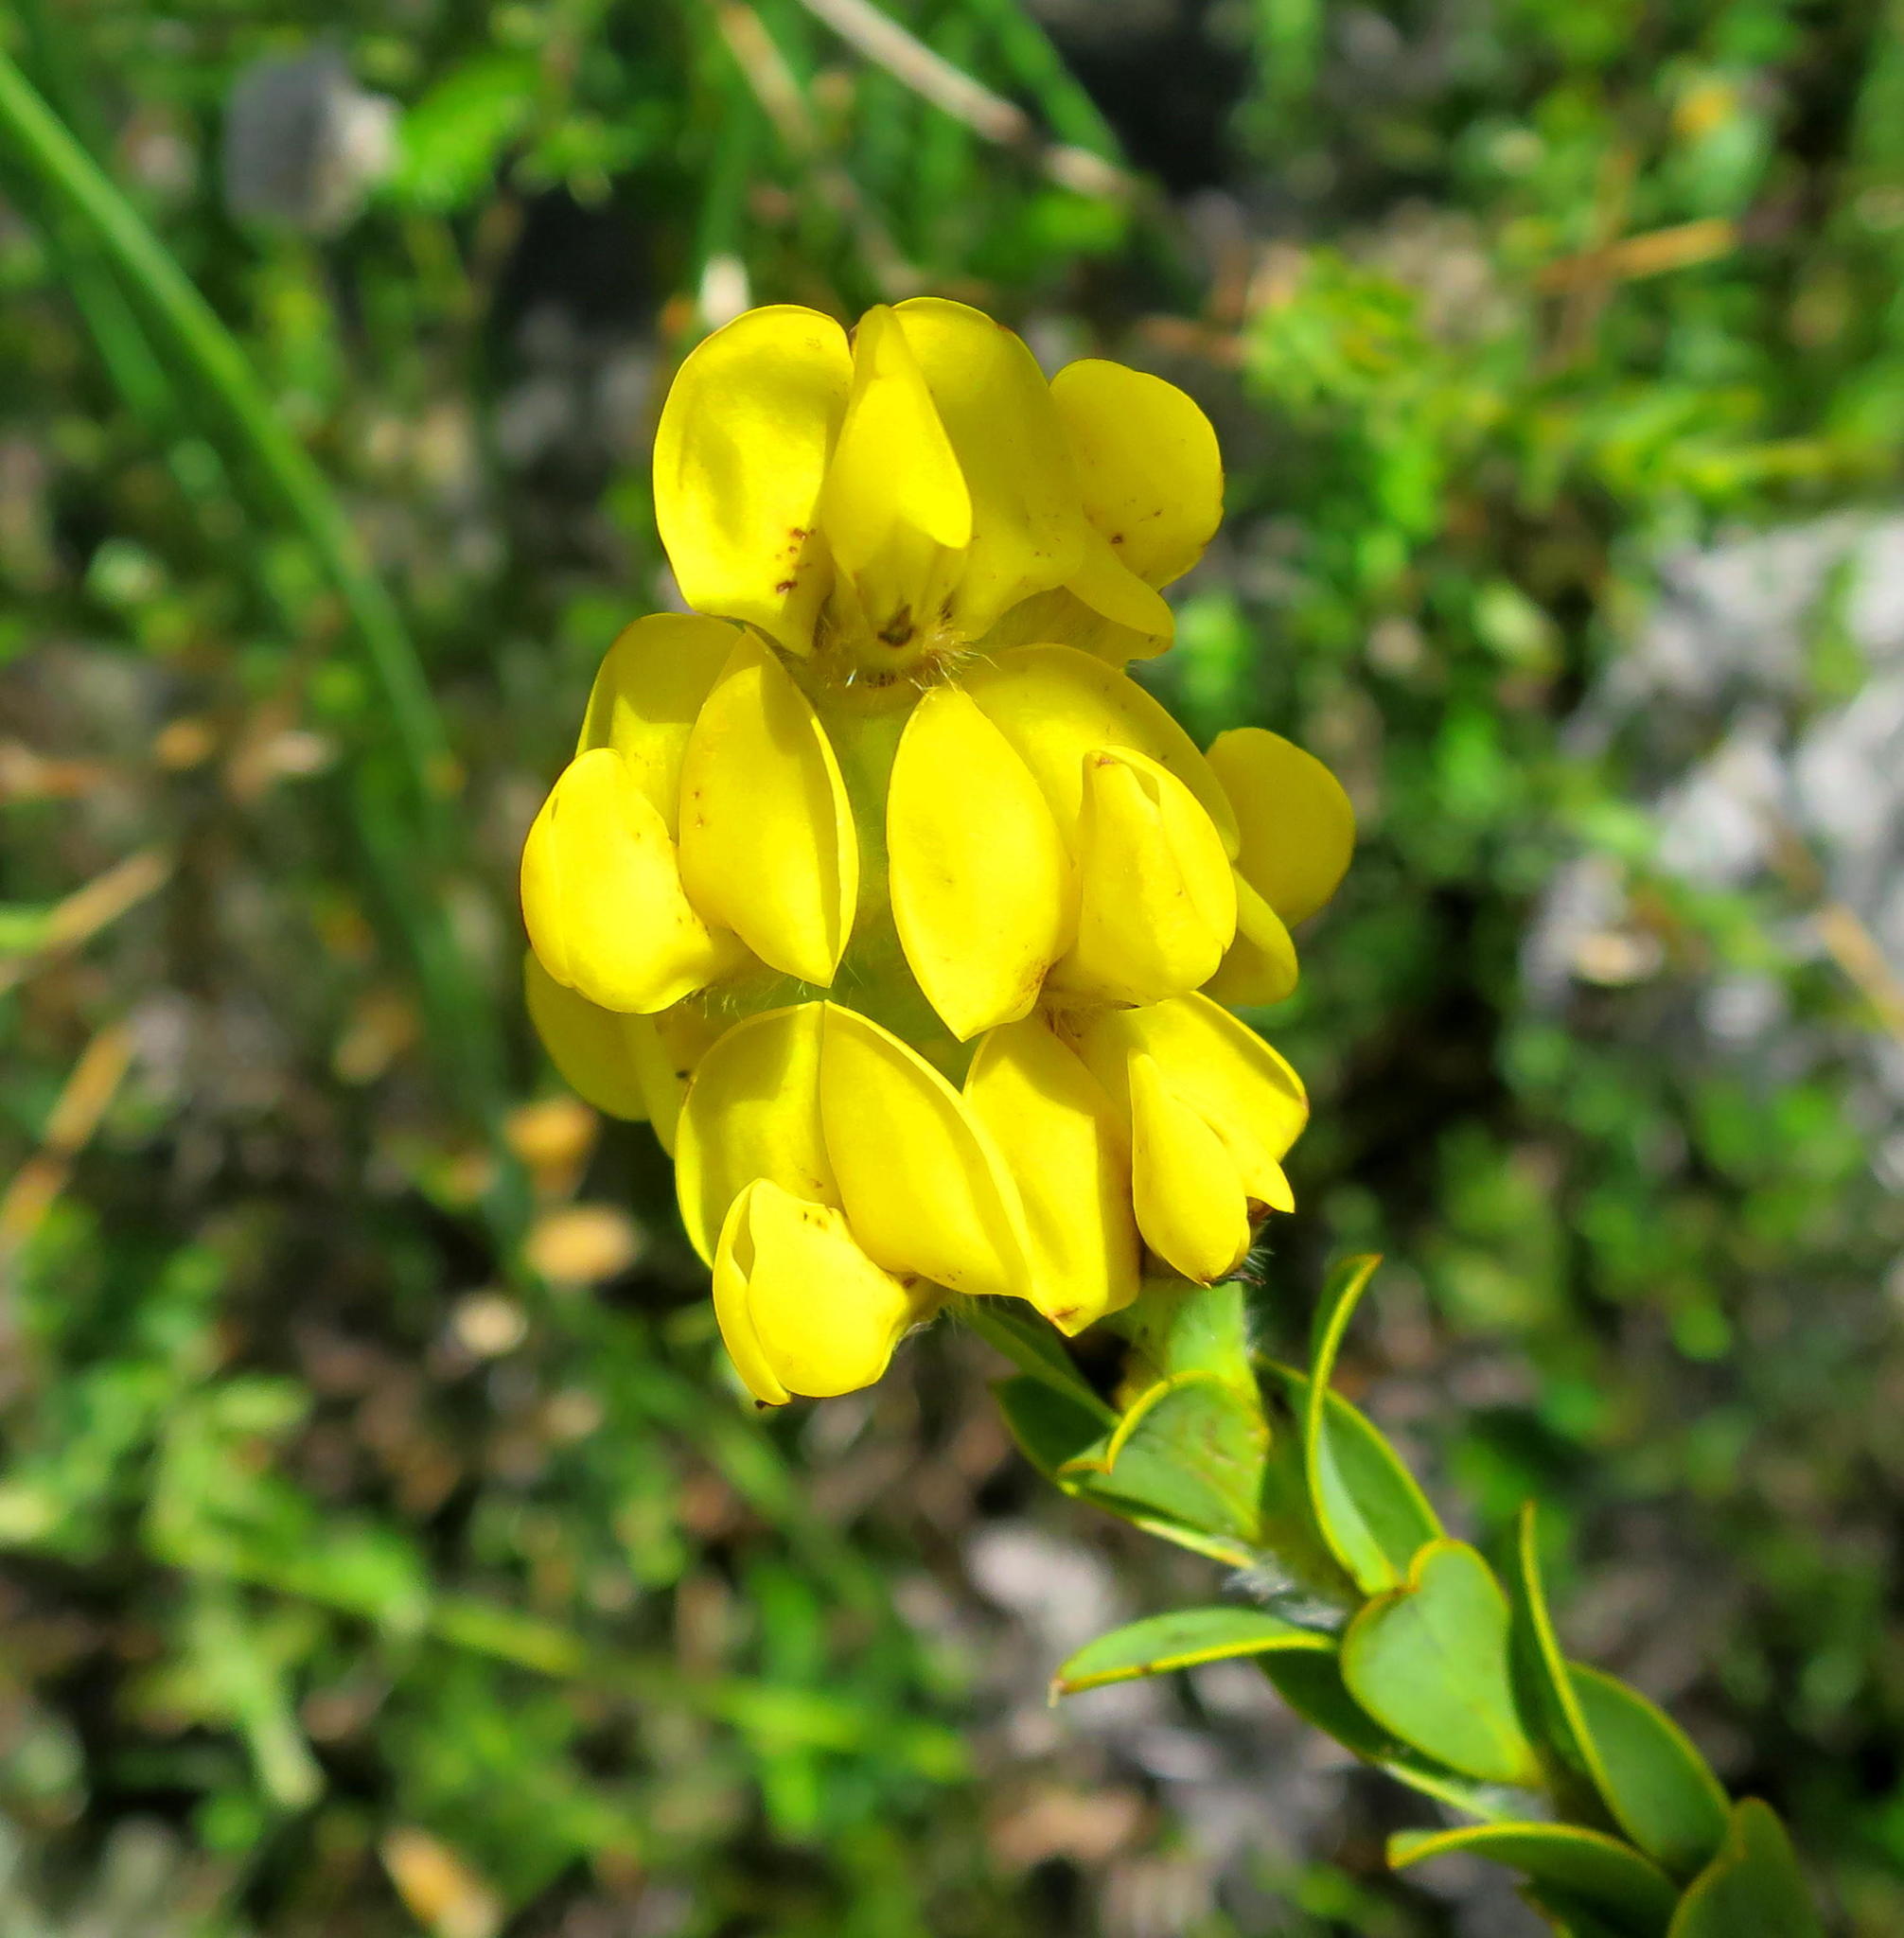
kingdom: Plantae
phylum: Tracheophyta
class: Magnoliopsida
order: Fabales
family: Fabaceae
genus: Liparia
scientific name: Liparia hirsuta
